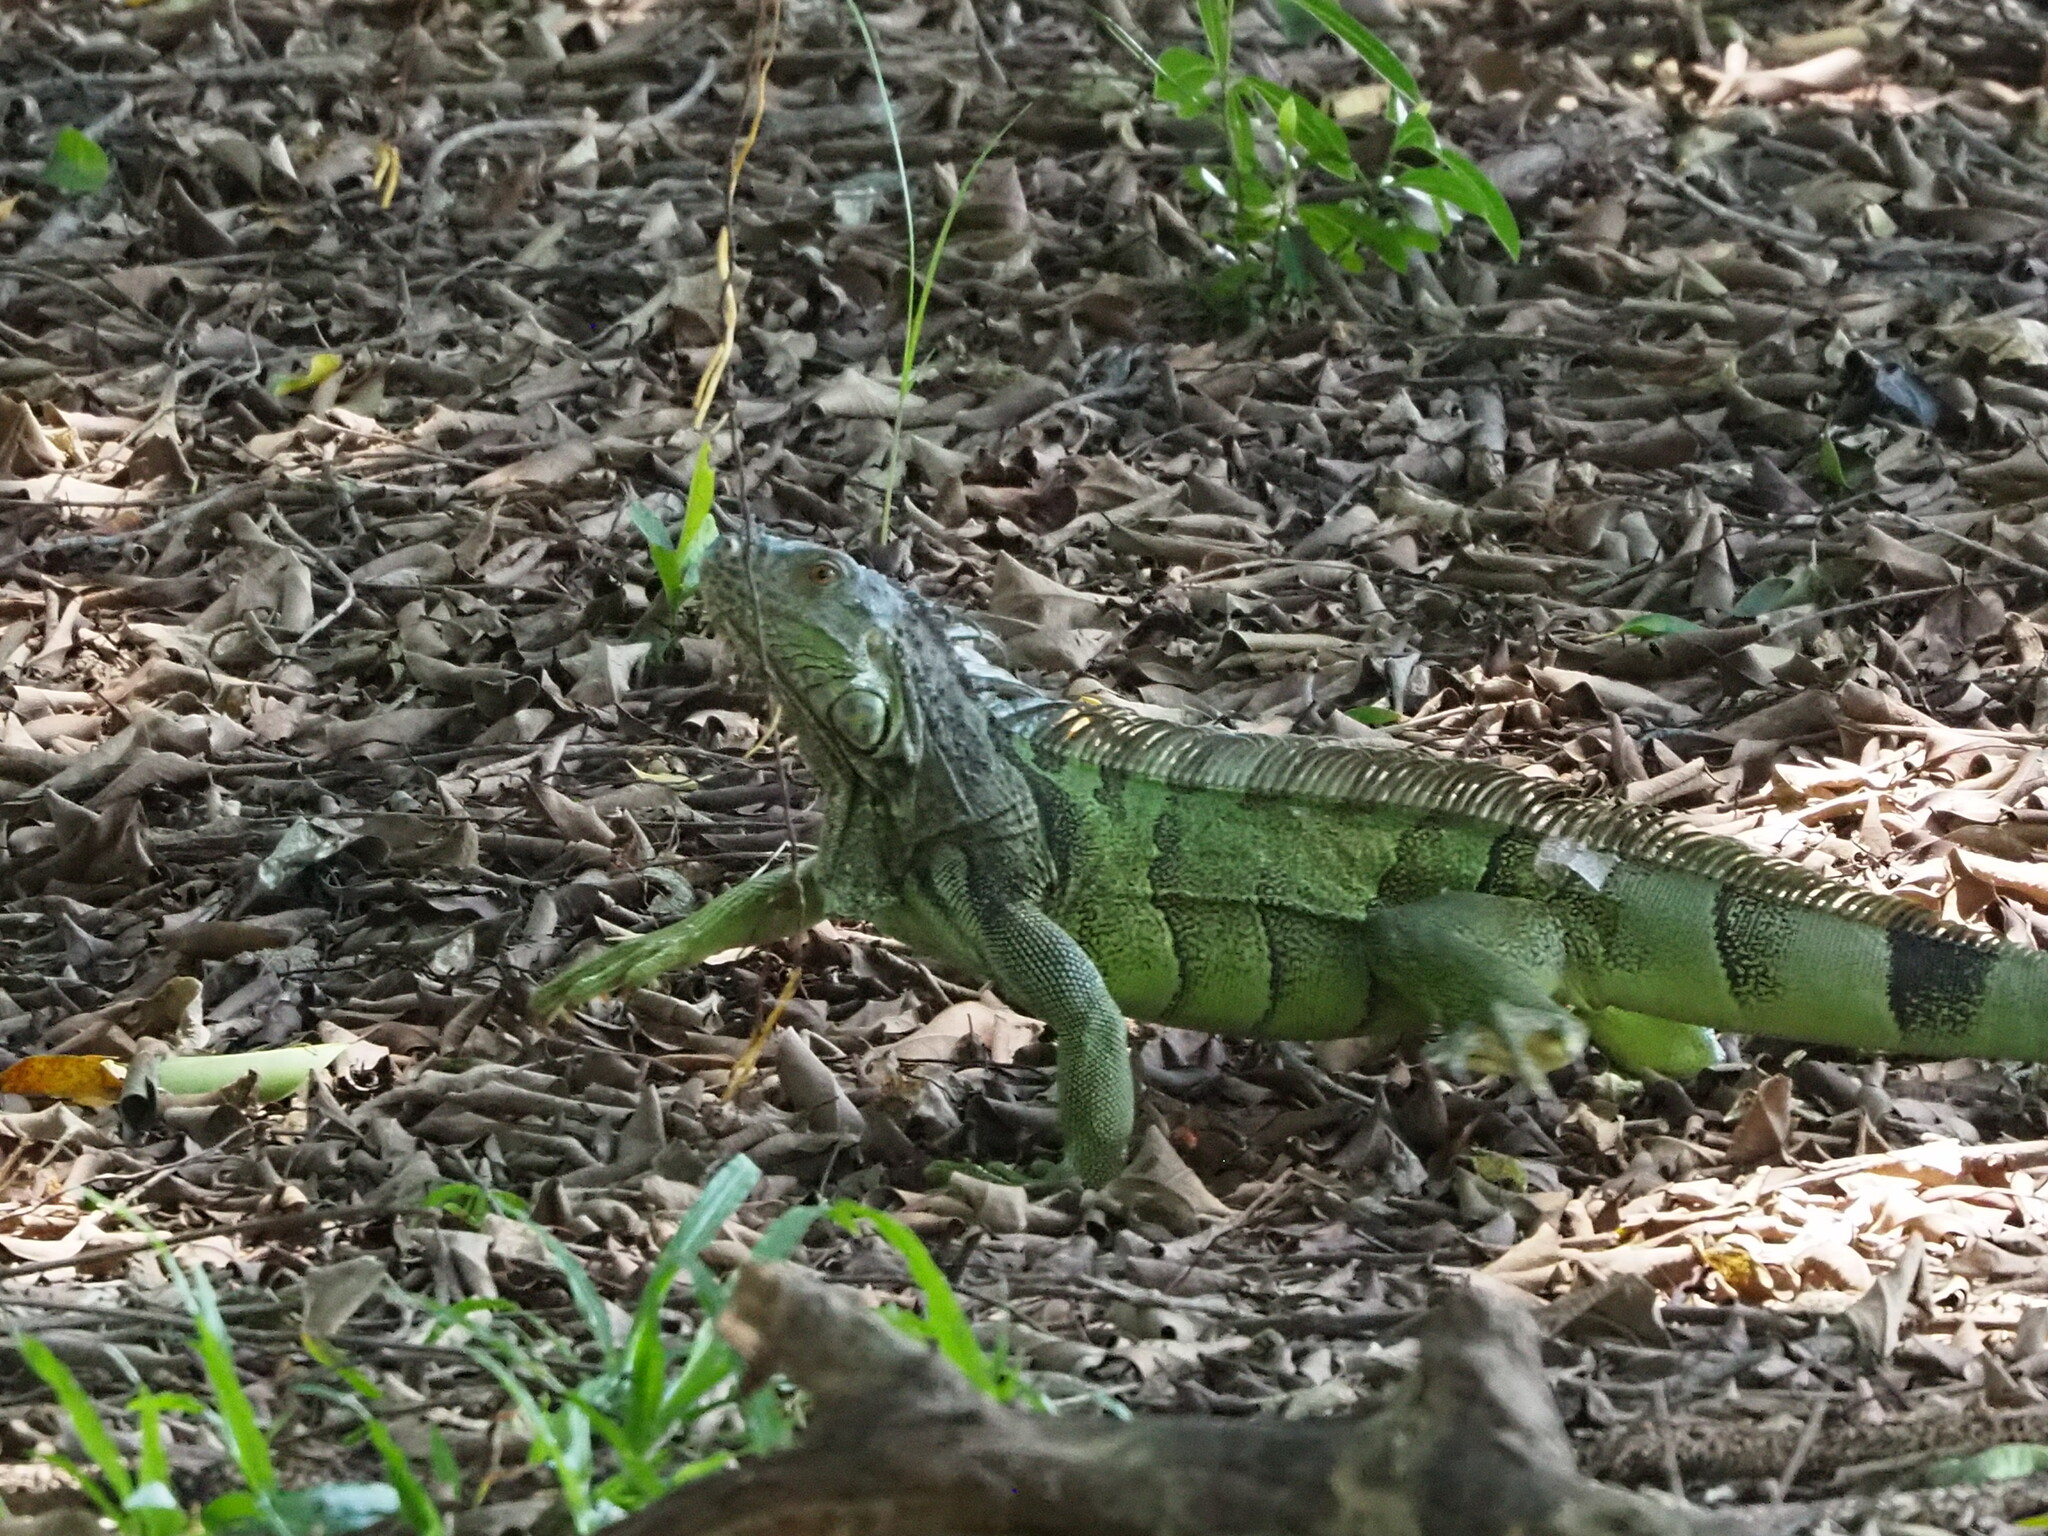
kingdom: Animalia
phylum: Chordata
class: Squamata
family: Iguanidae
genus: Iguana
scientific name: Iguana iguana
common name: Green iguana
